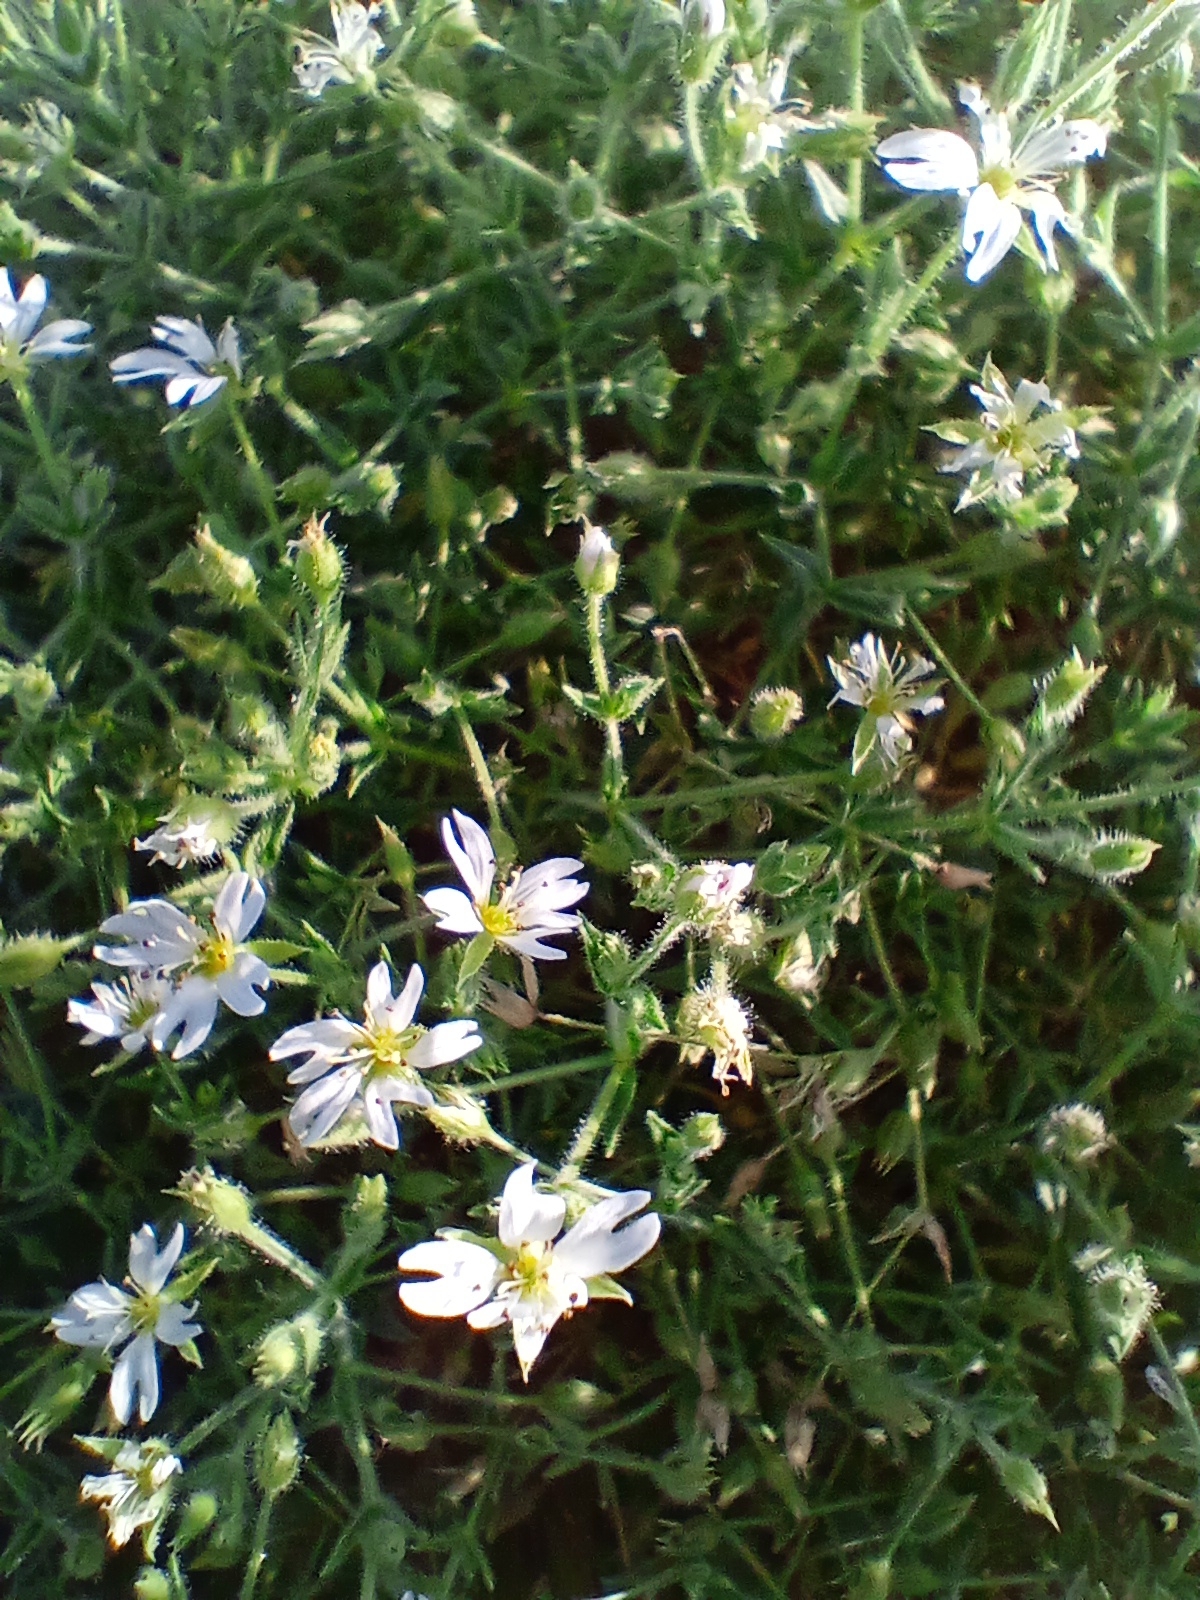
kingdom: Plantae
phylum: Tracheophyta
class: Magnoliopsida
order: Caryophyllales
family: Caryophyllaceae
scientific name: Caryophyllaceae
